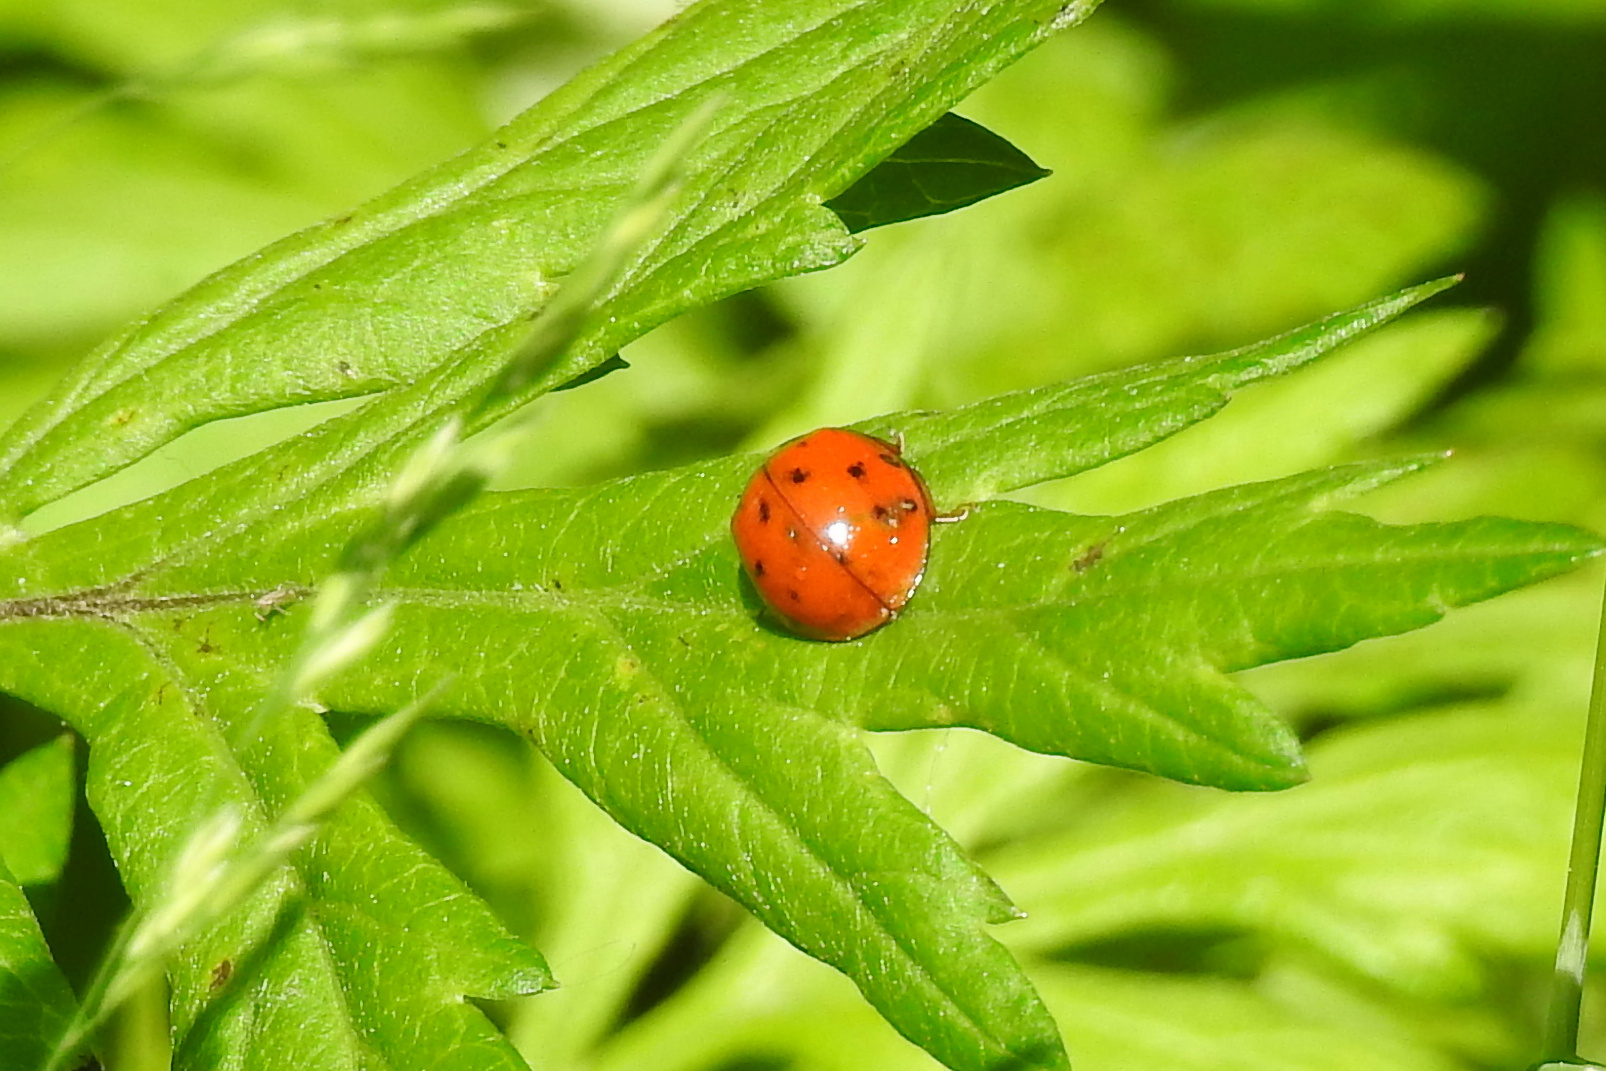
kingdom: Animalia
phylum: Arthropoda
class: Insecta
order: Coleoptera
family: Coccinellidae
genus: Harmonia
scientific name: Harmonia axyridis
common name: Harlequin ladybird
